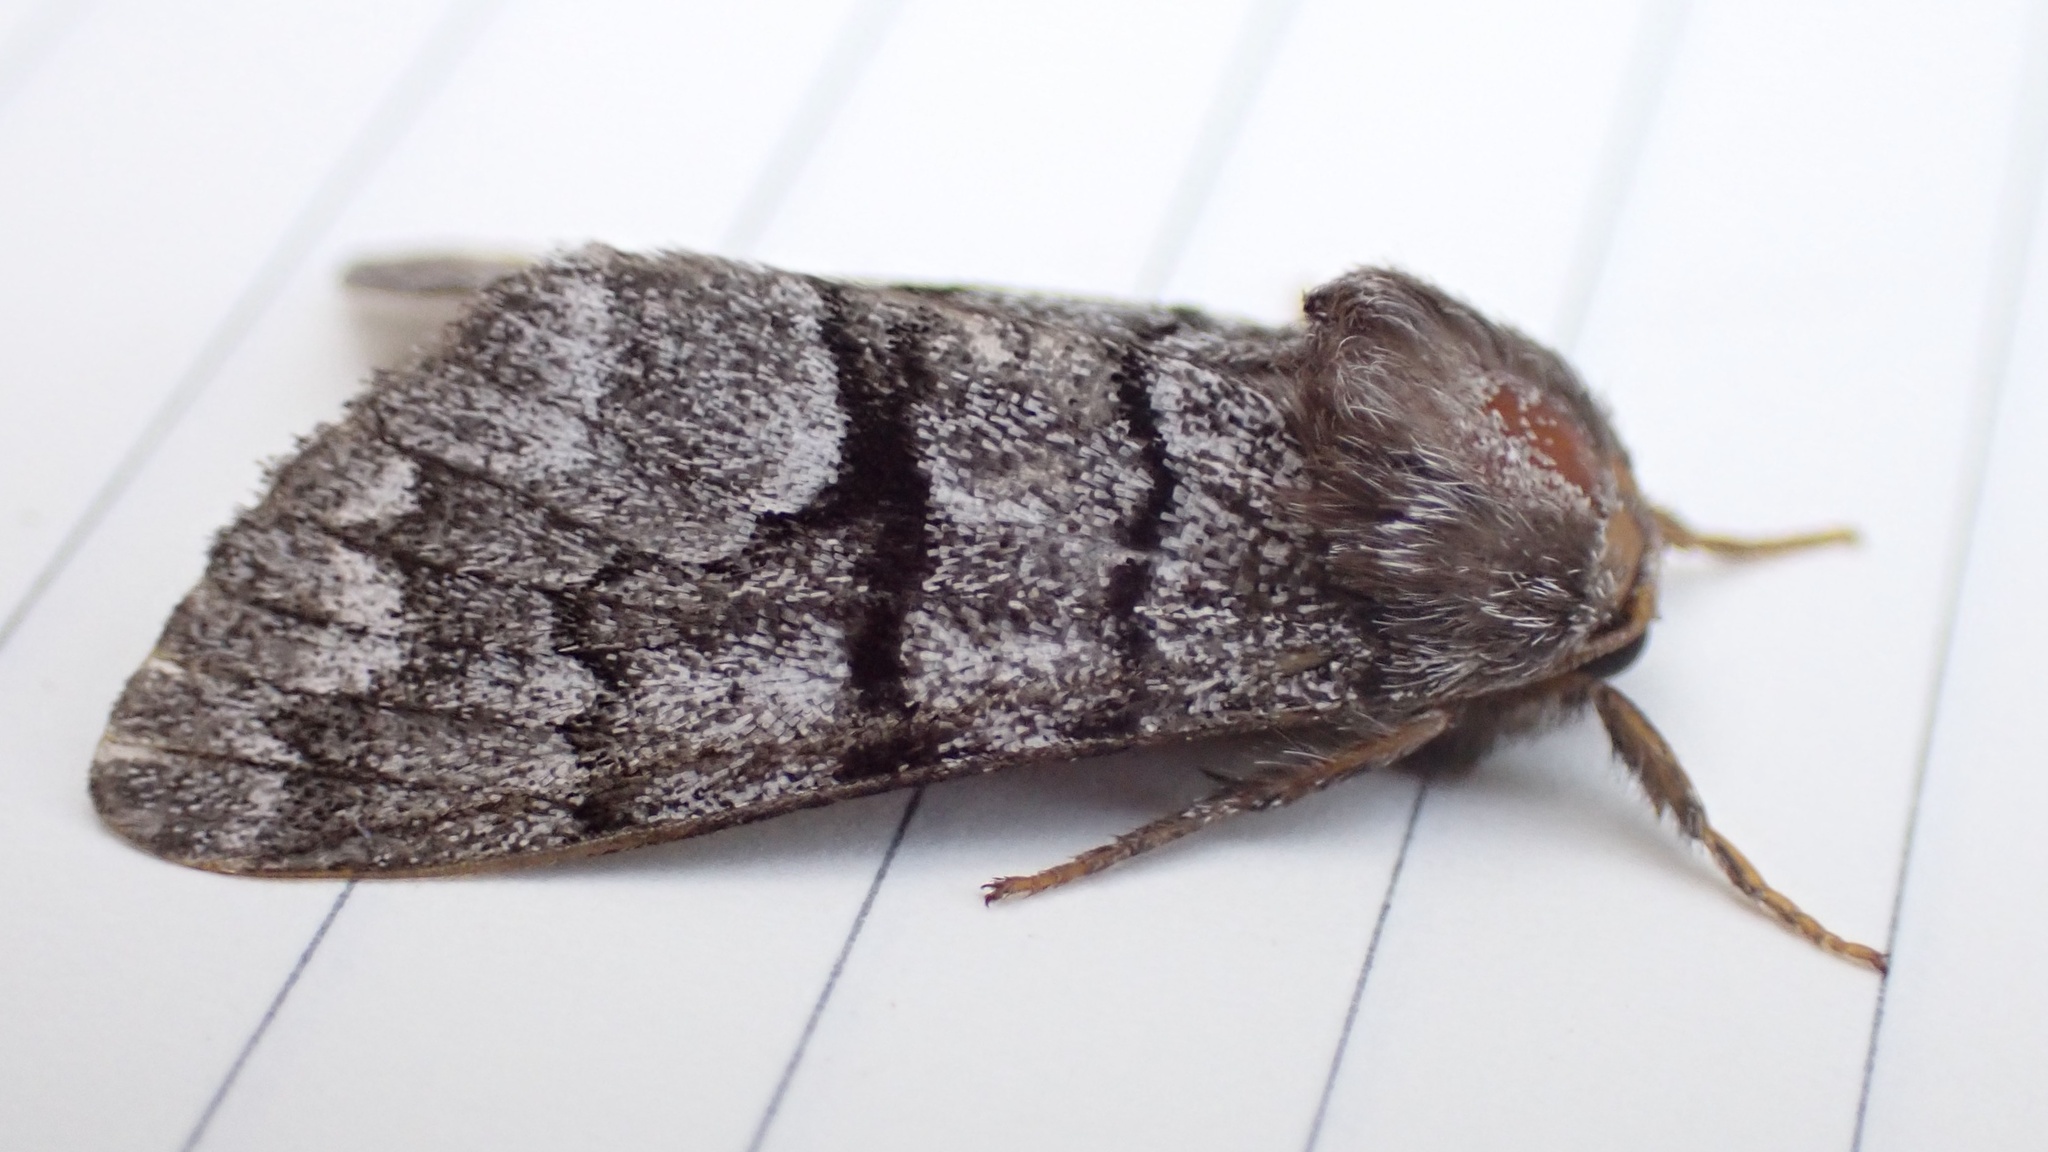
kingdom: Animalia
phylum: Arthropoda
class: Insecta
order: Lepidoptera
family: Noctuidae
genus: Panthea
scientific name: Panthea furcilla
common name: Eastern panthea moth
